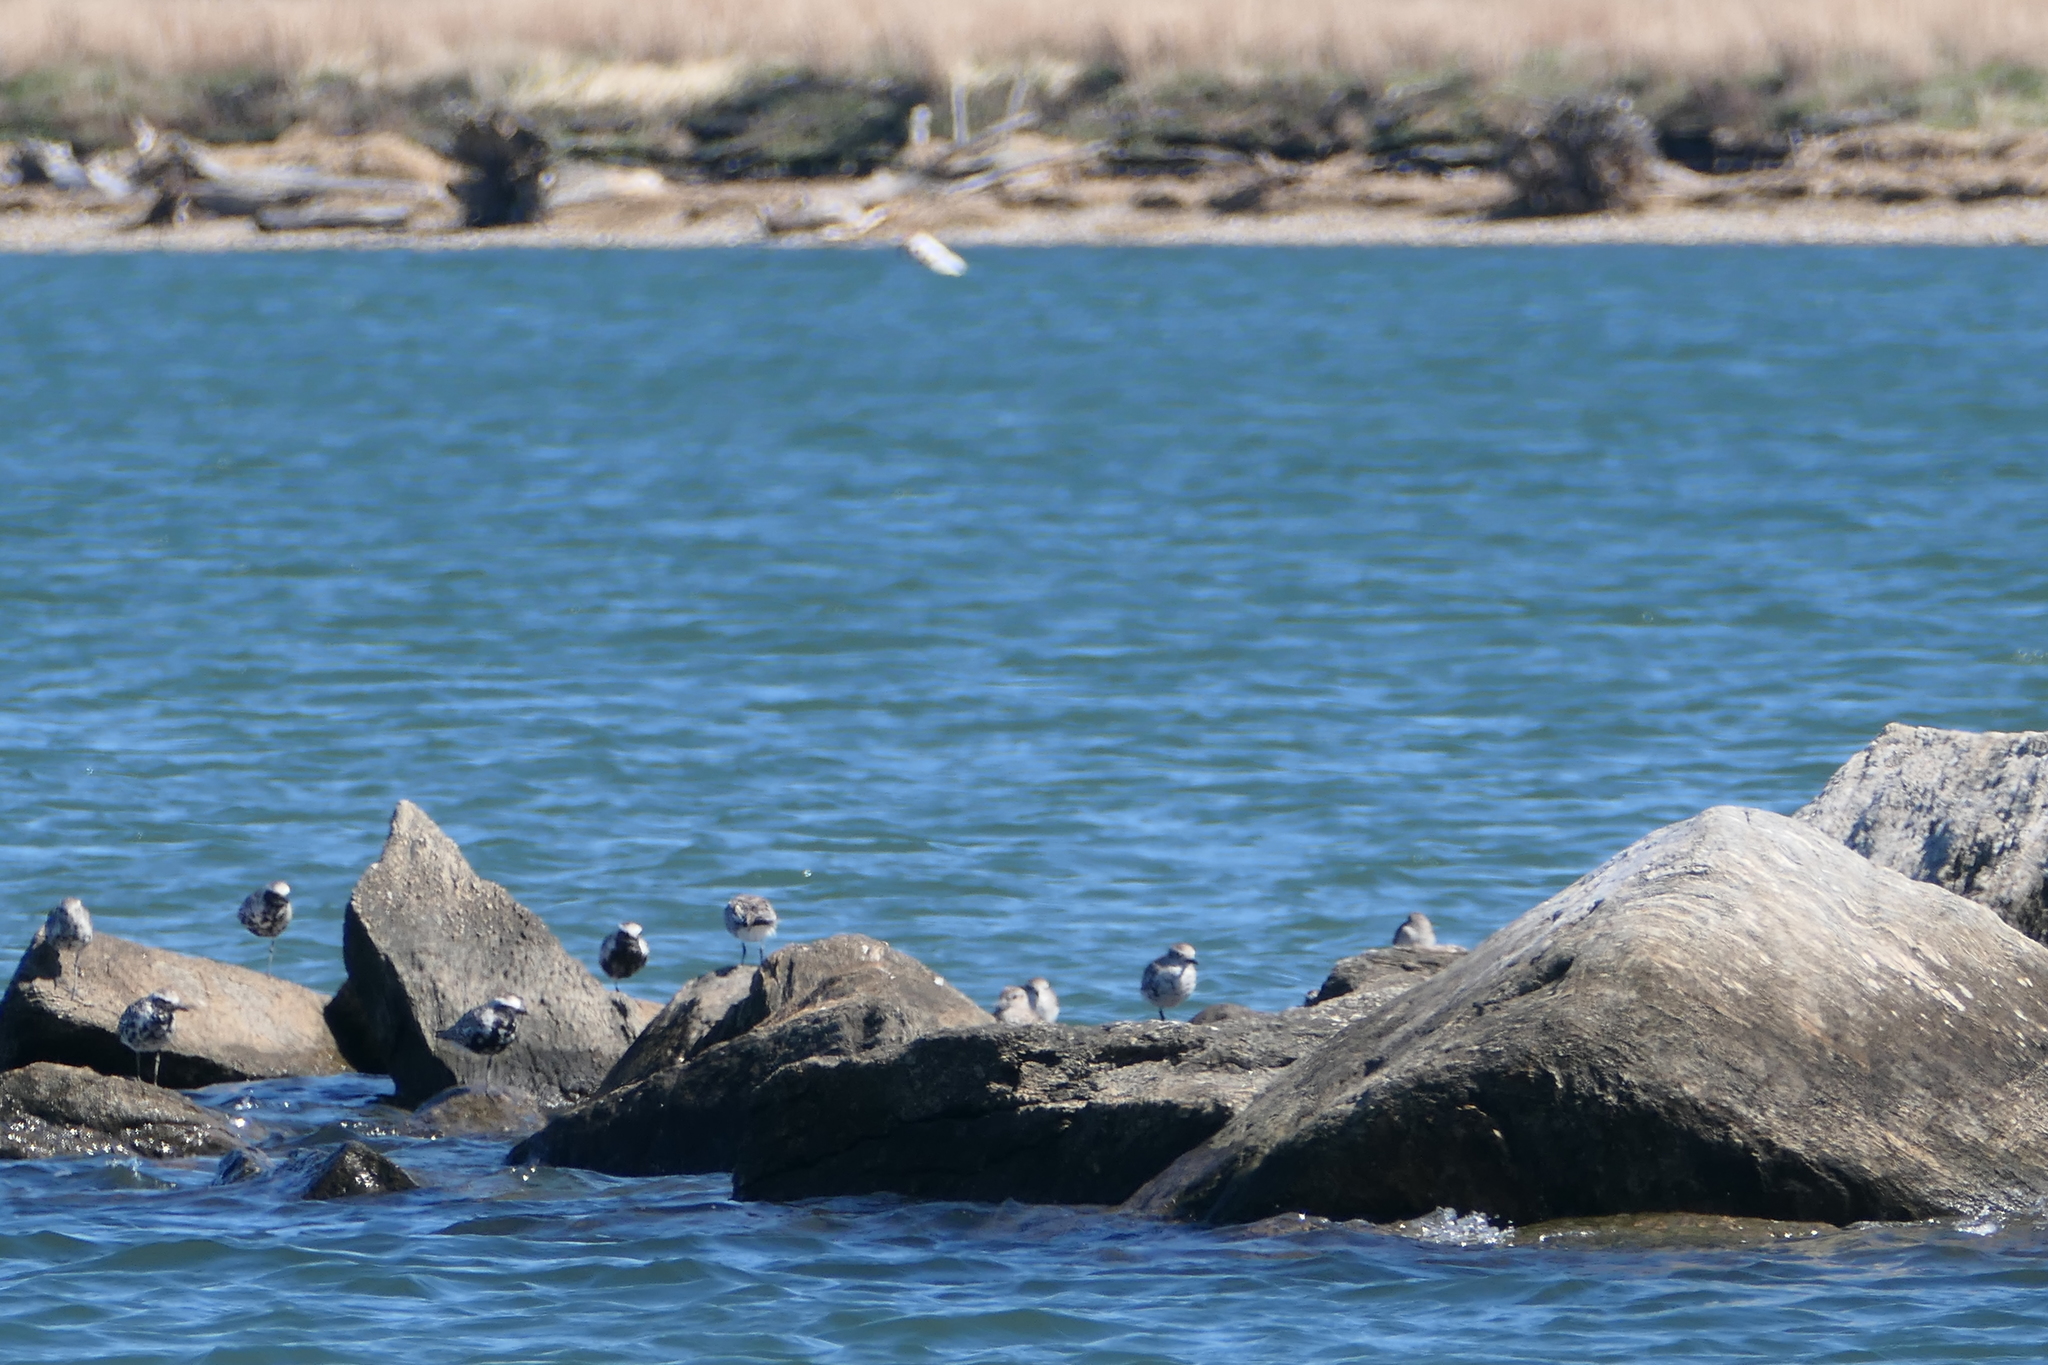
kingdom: Animalia
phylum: Chordata
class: Aves
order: Charadriiformes
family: Charadriidae
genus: Pluvialis
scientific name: Pluvialis squatarola
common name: Grey plover
